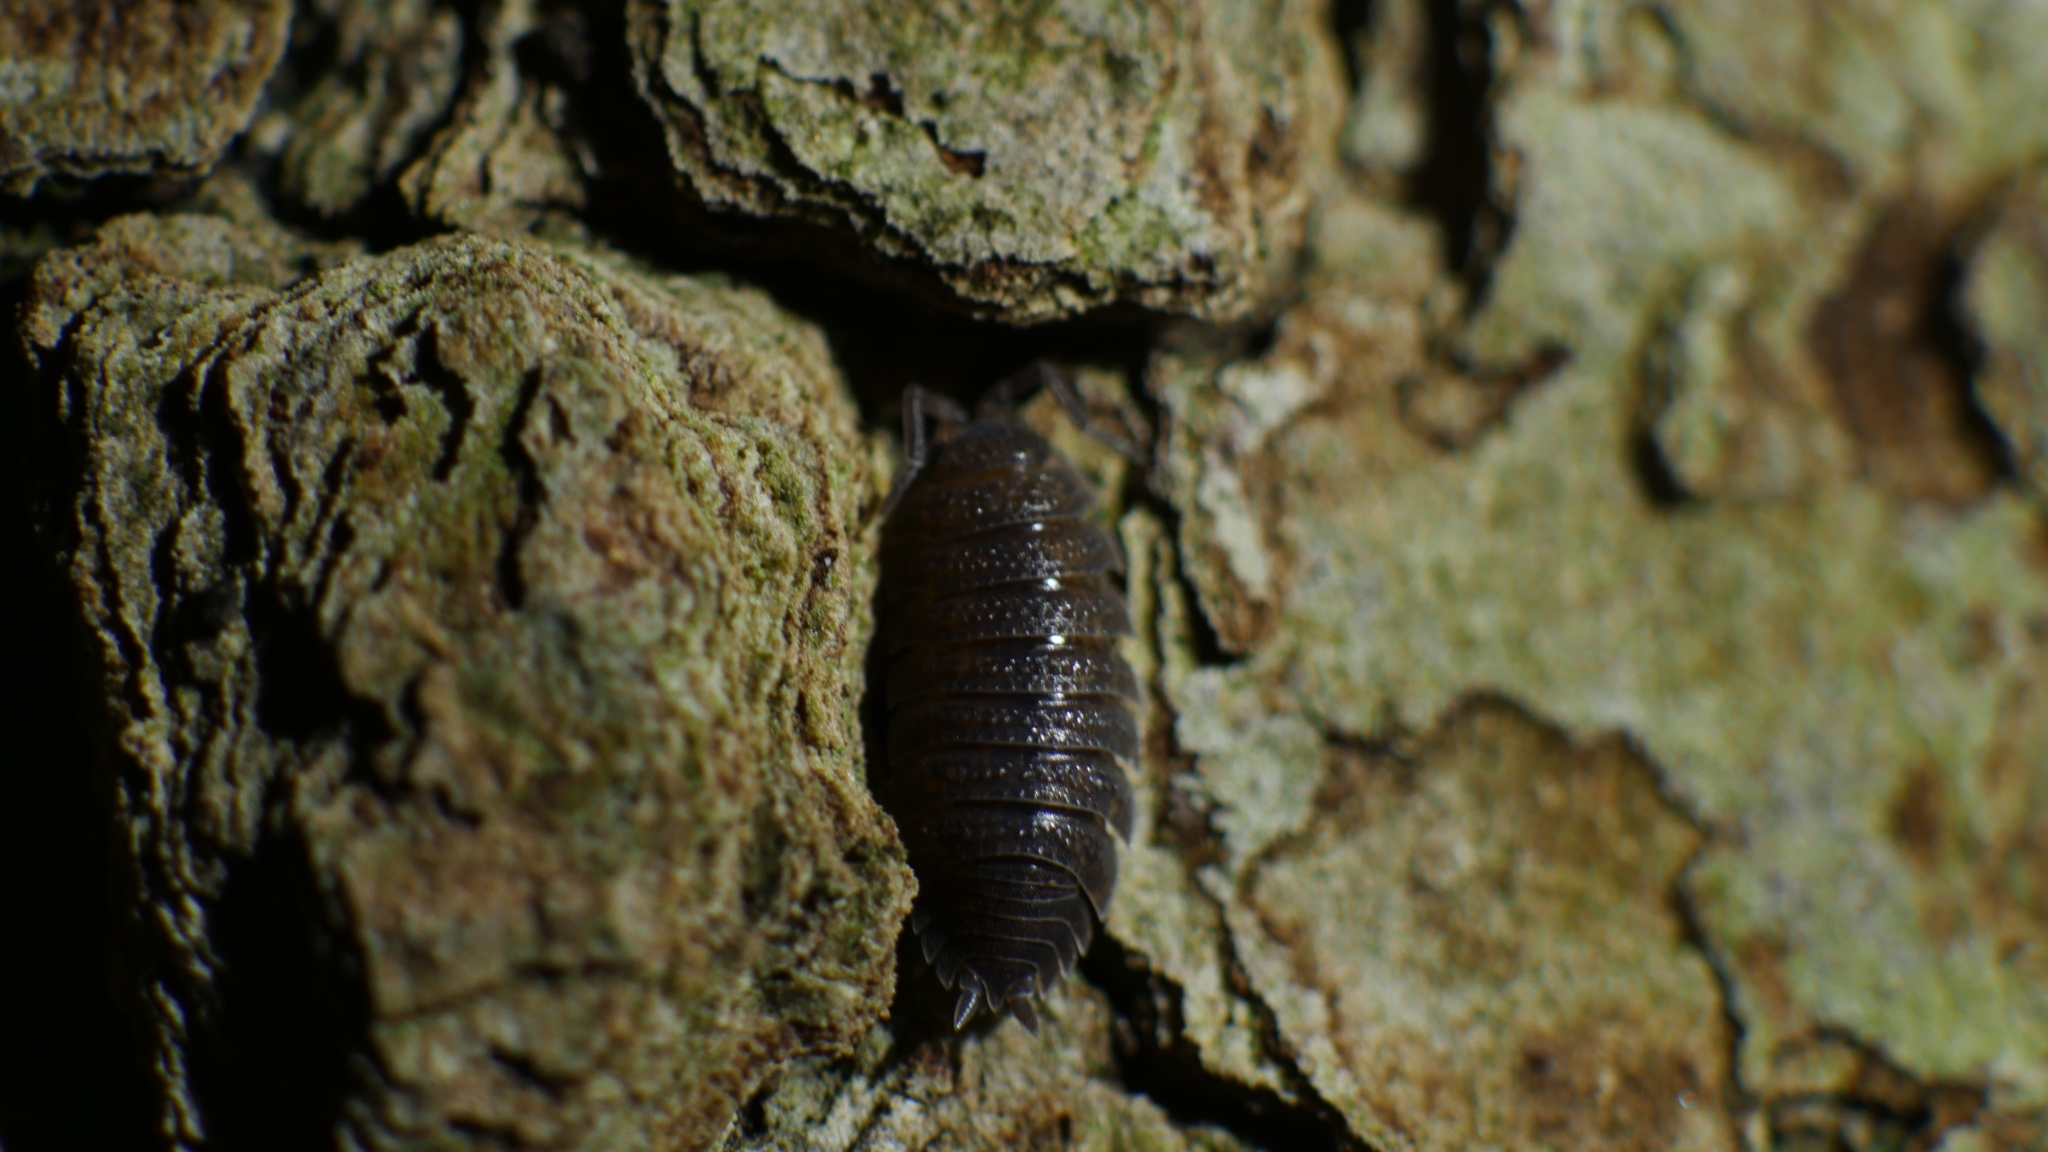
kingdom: Animalia
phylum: Arthropoda
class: Malacostraca
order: Isopoda
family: Porcellionidae
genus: Porcellio
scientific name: Porcellio scaber
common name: Common rough woodlouse
